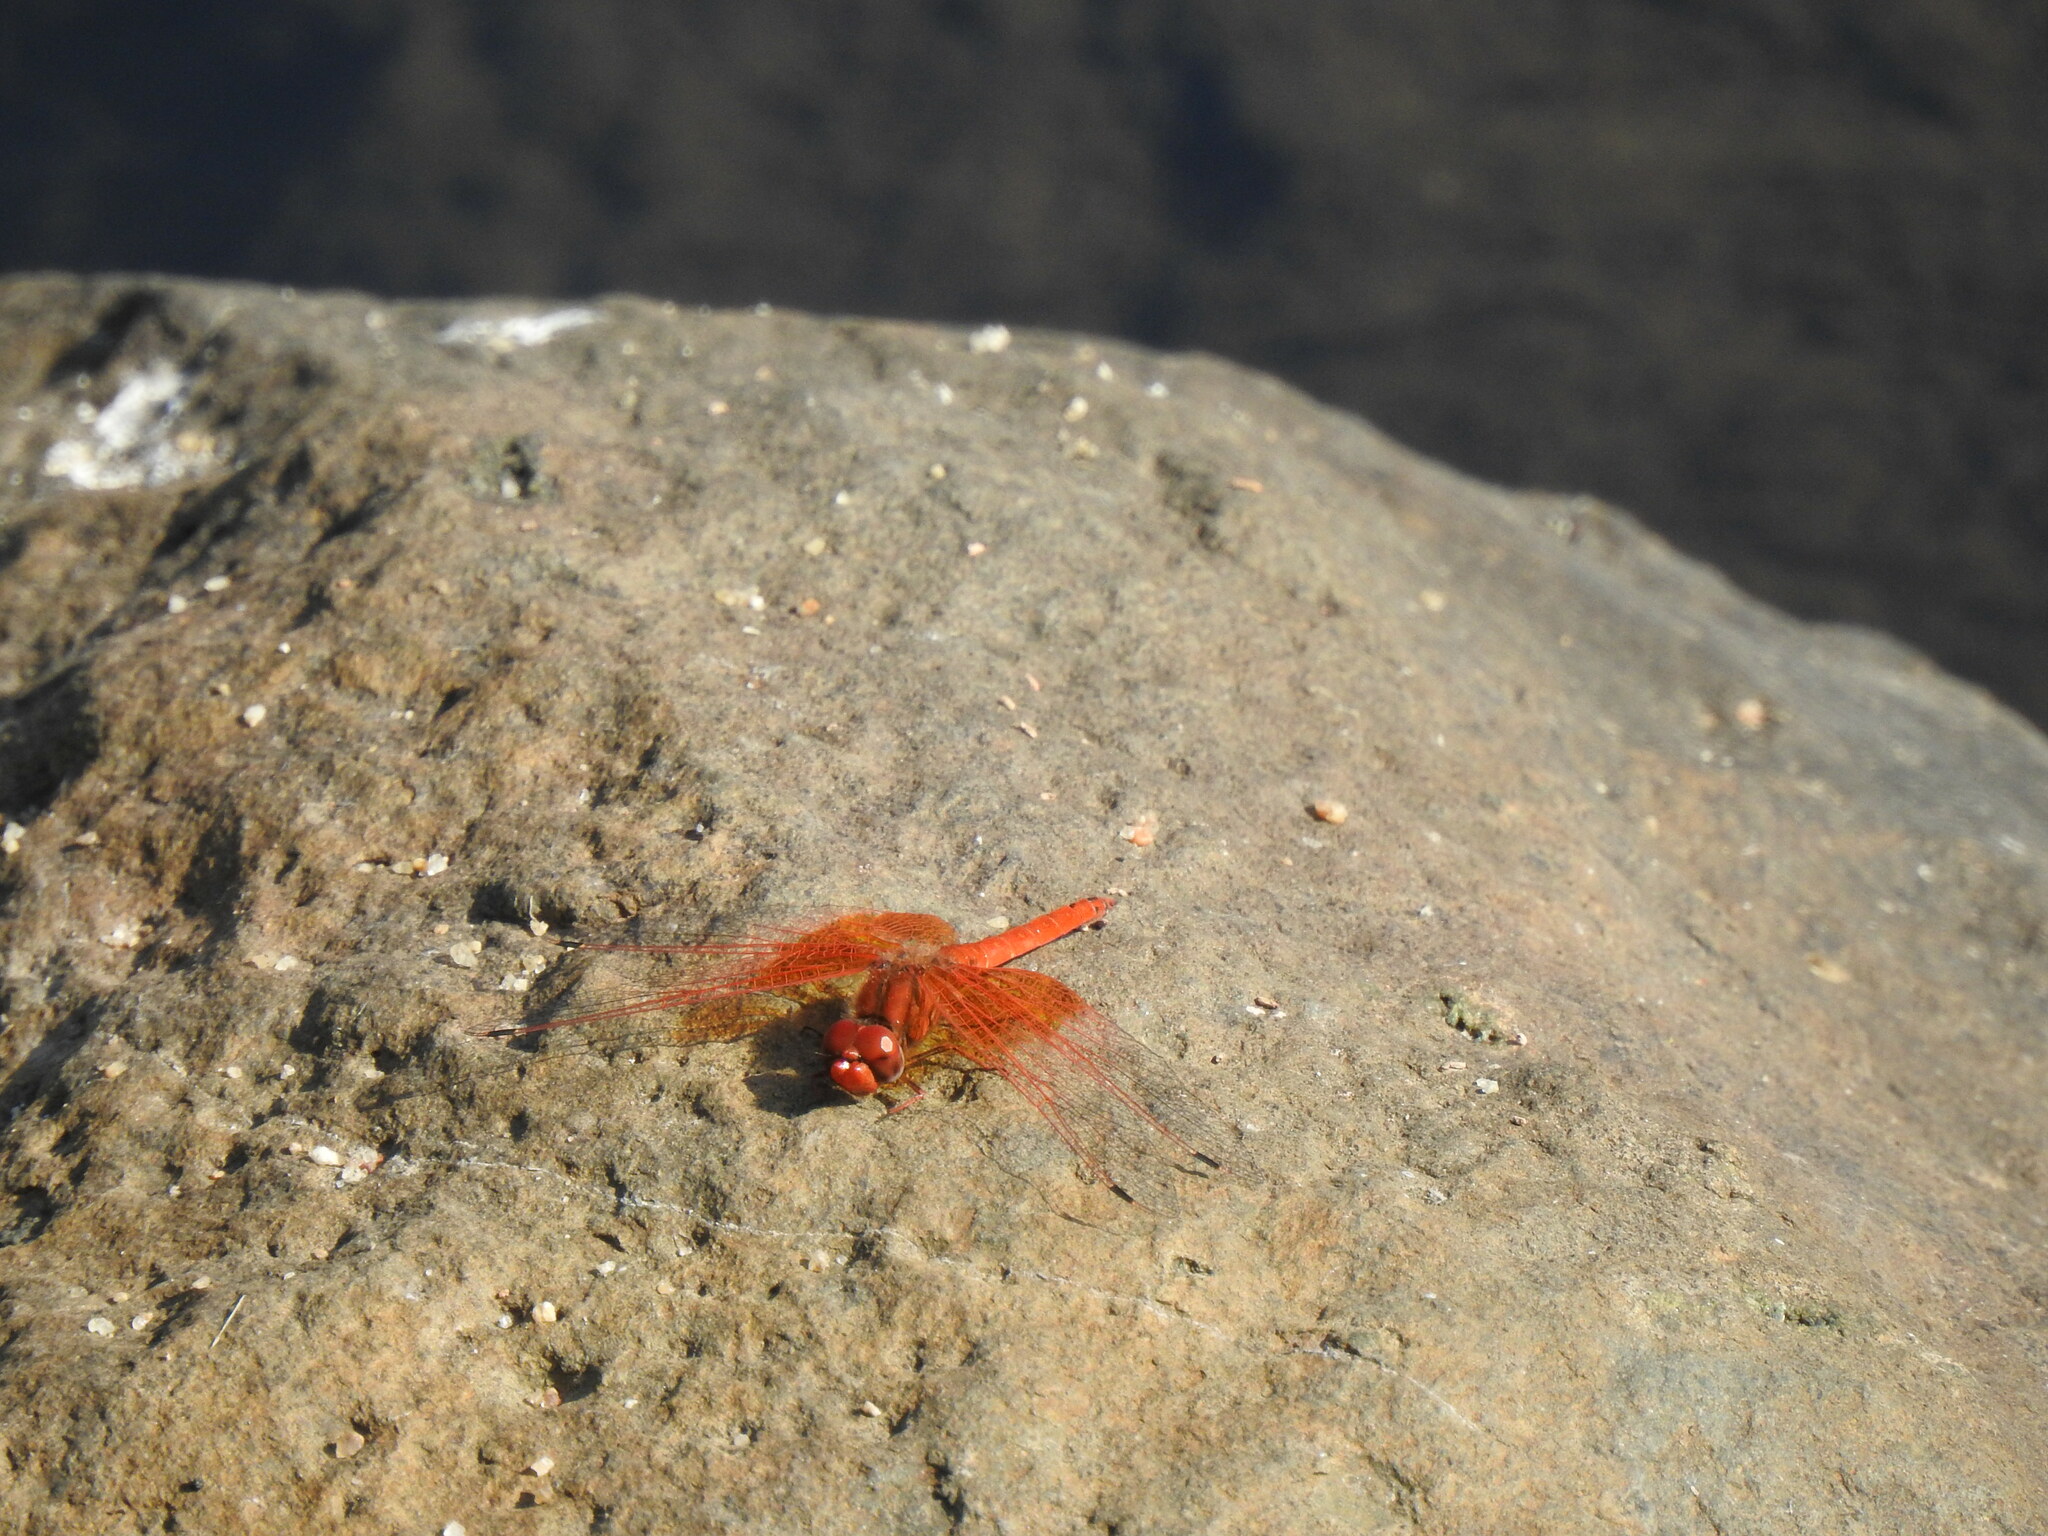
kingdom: Animalia
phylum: Arthropoda
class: Insecta
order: Odonata
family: Libellulidae
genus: Trithemis
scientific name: Trithemis kirbyi
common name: Kirby's dropwing
